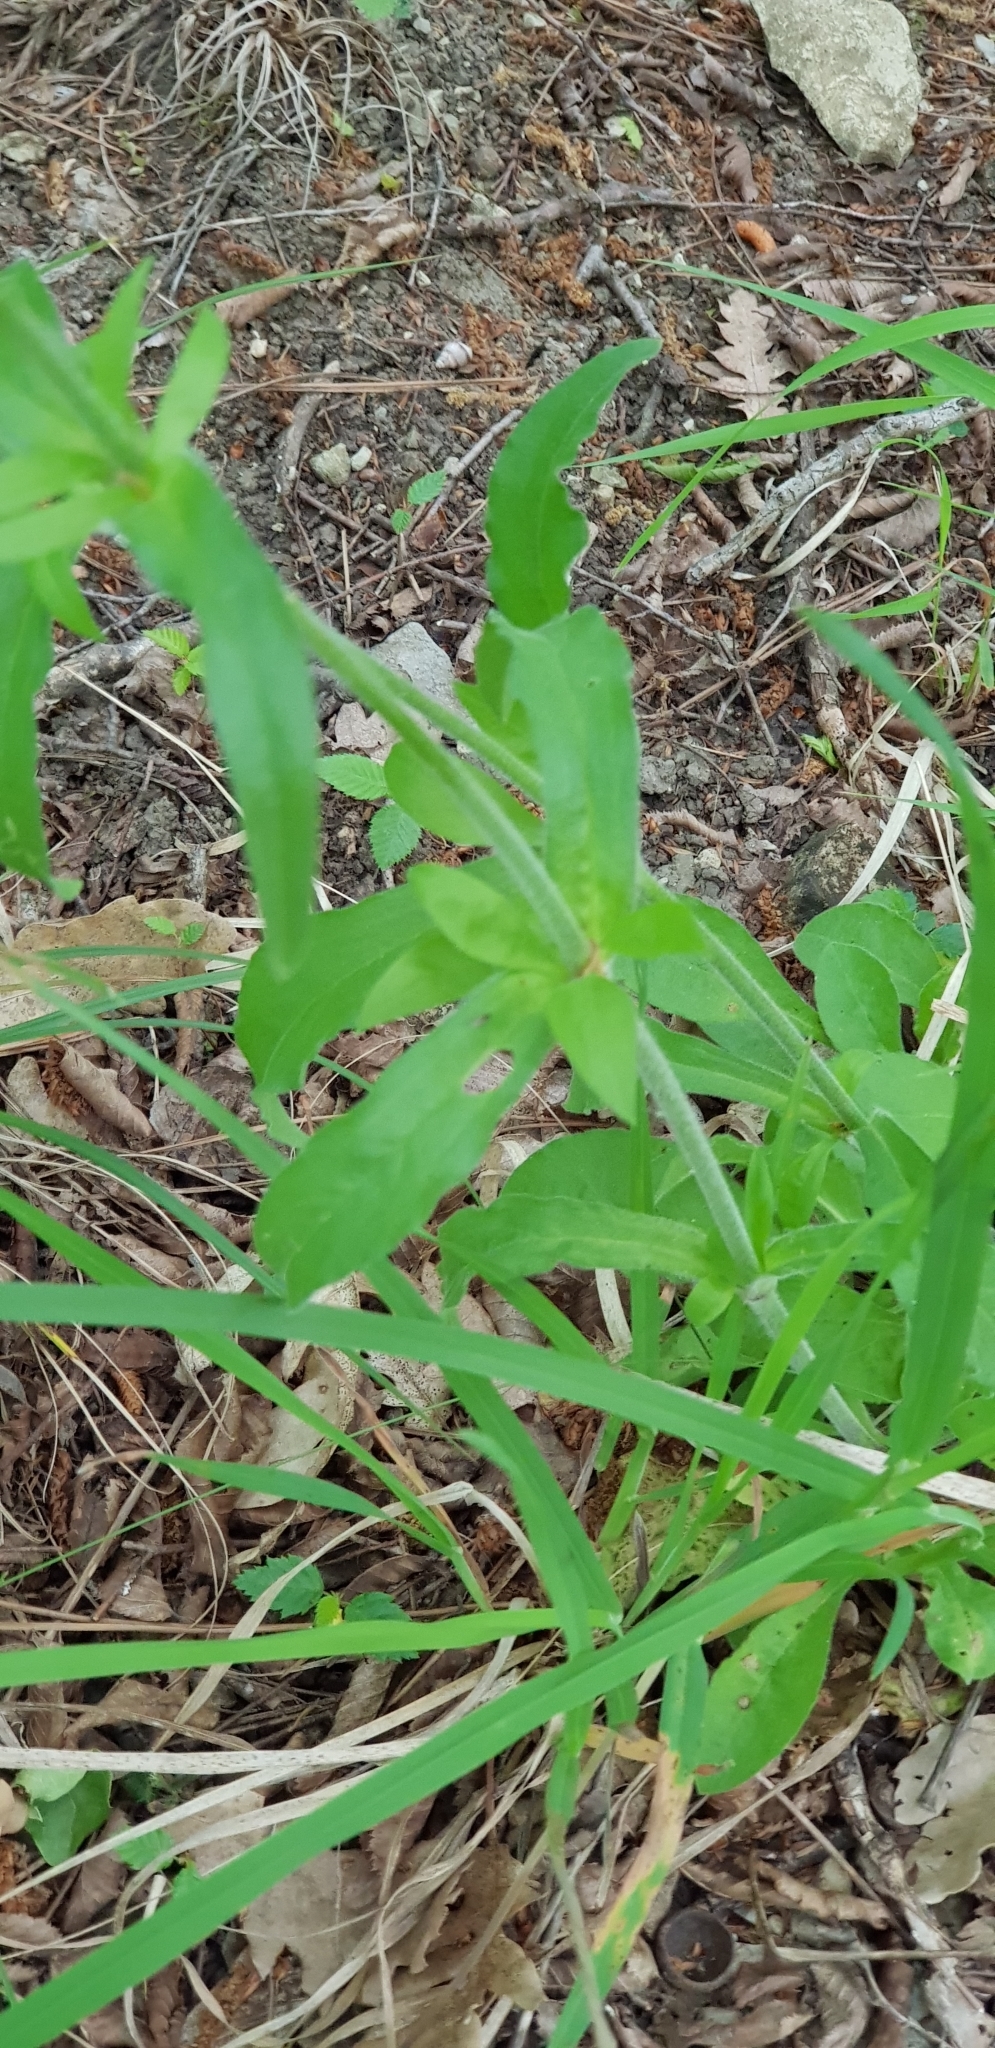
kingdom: Plantae
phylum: Tracheophyta
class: Magnoliopsida
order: Caryophyllales
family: Caryophyllaceae
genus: Silene
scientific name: Silene italica
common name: Italian catchfly
